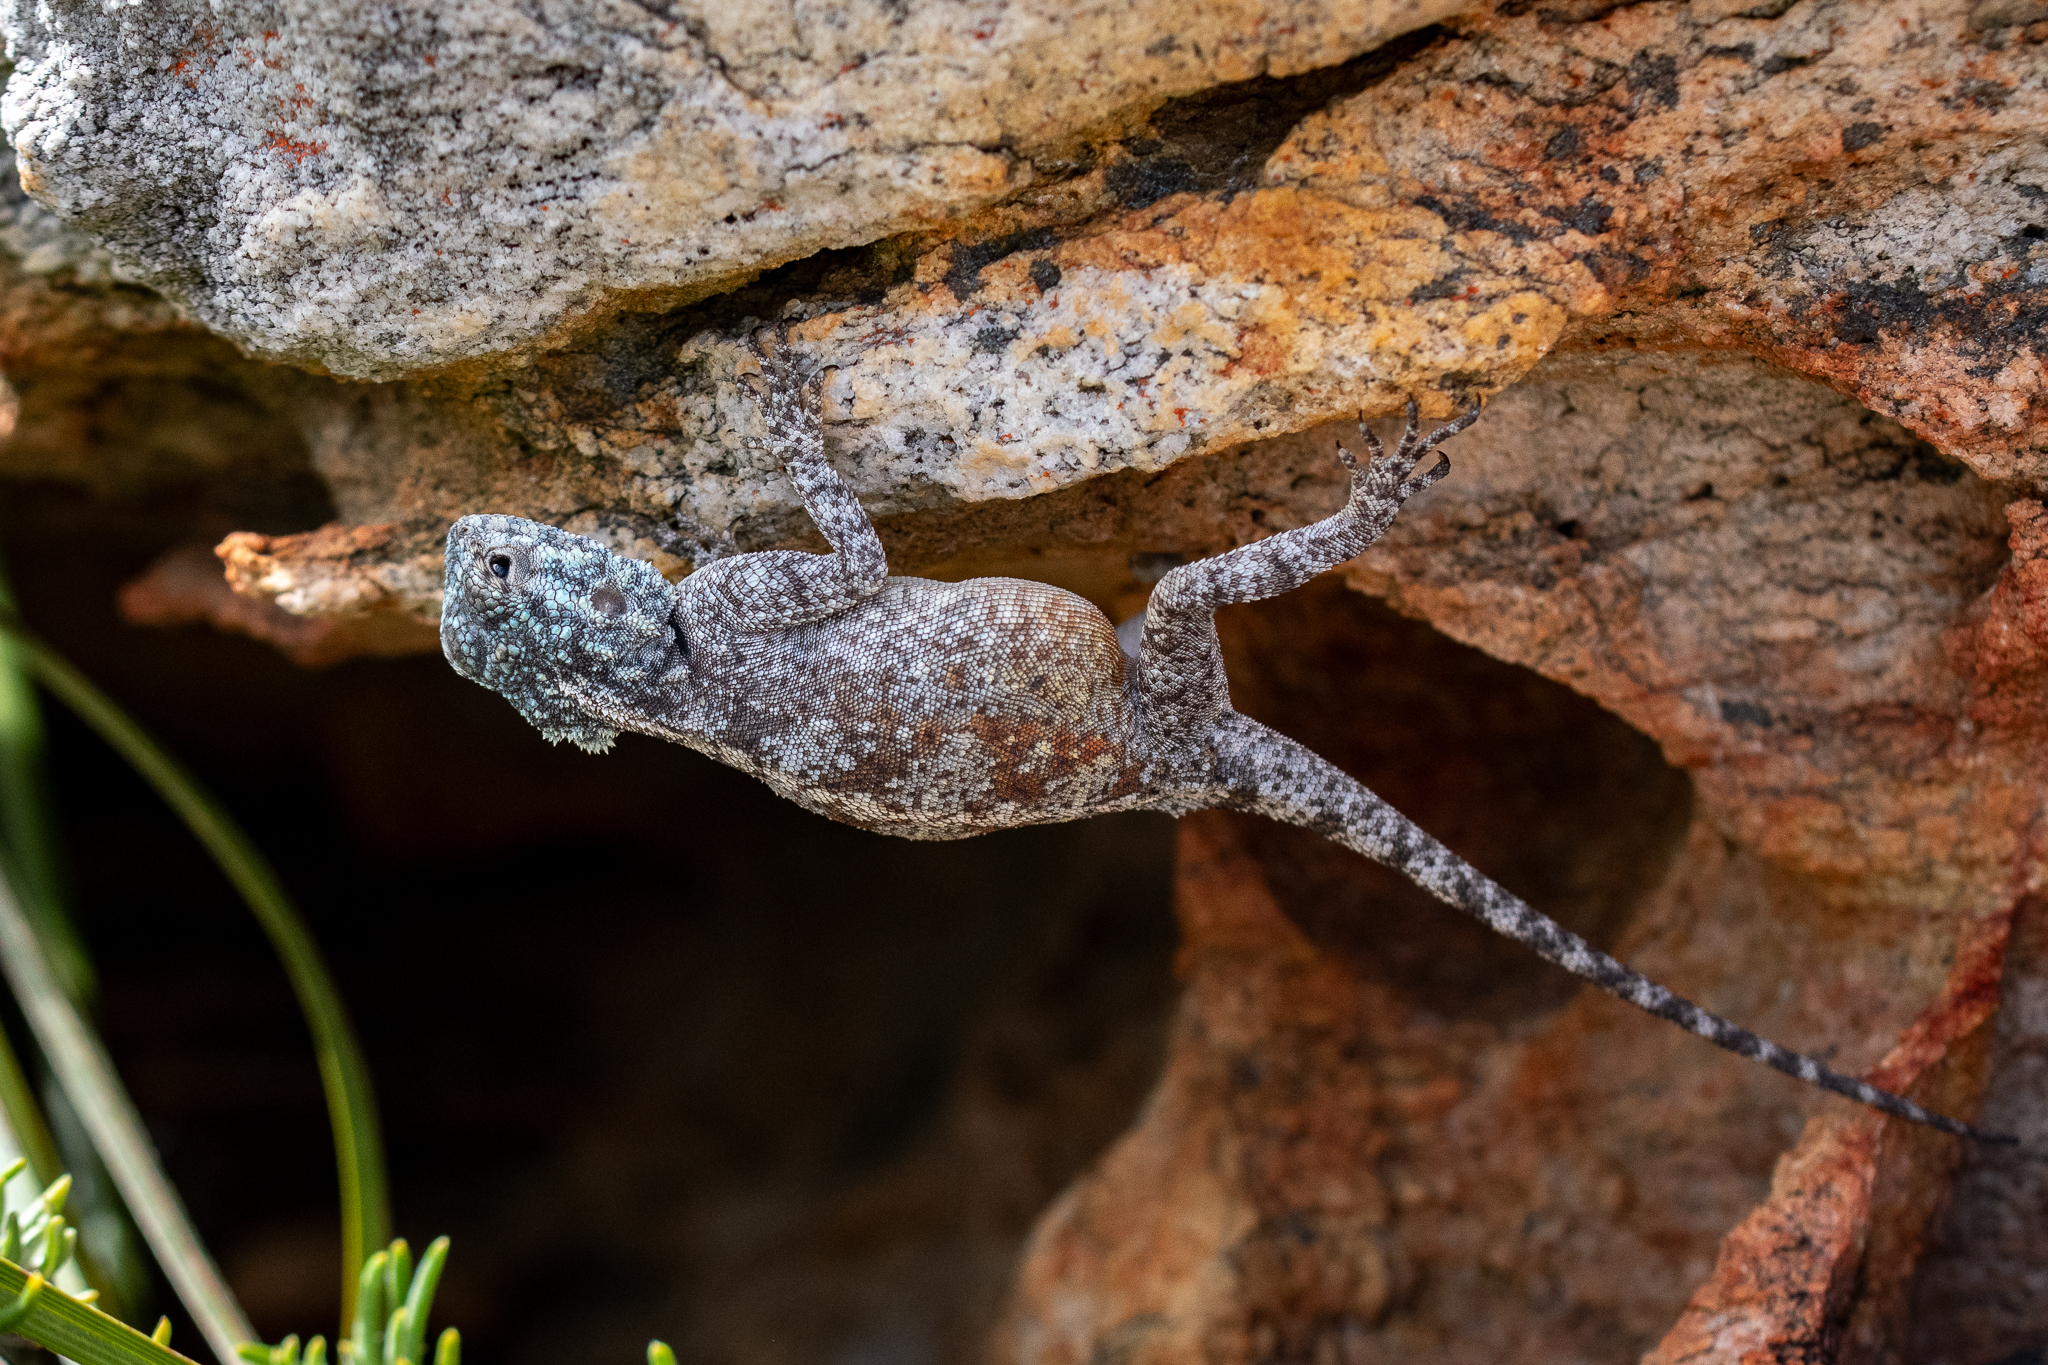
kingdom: Animalia
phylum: Chordata
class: Squamata
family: Agamidae
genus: Agama
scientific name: Agama atra
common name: Southern african rock agama
